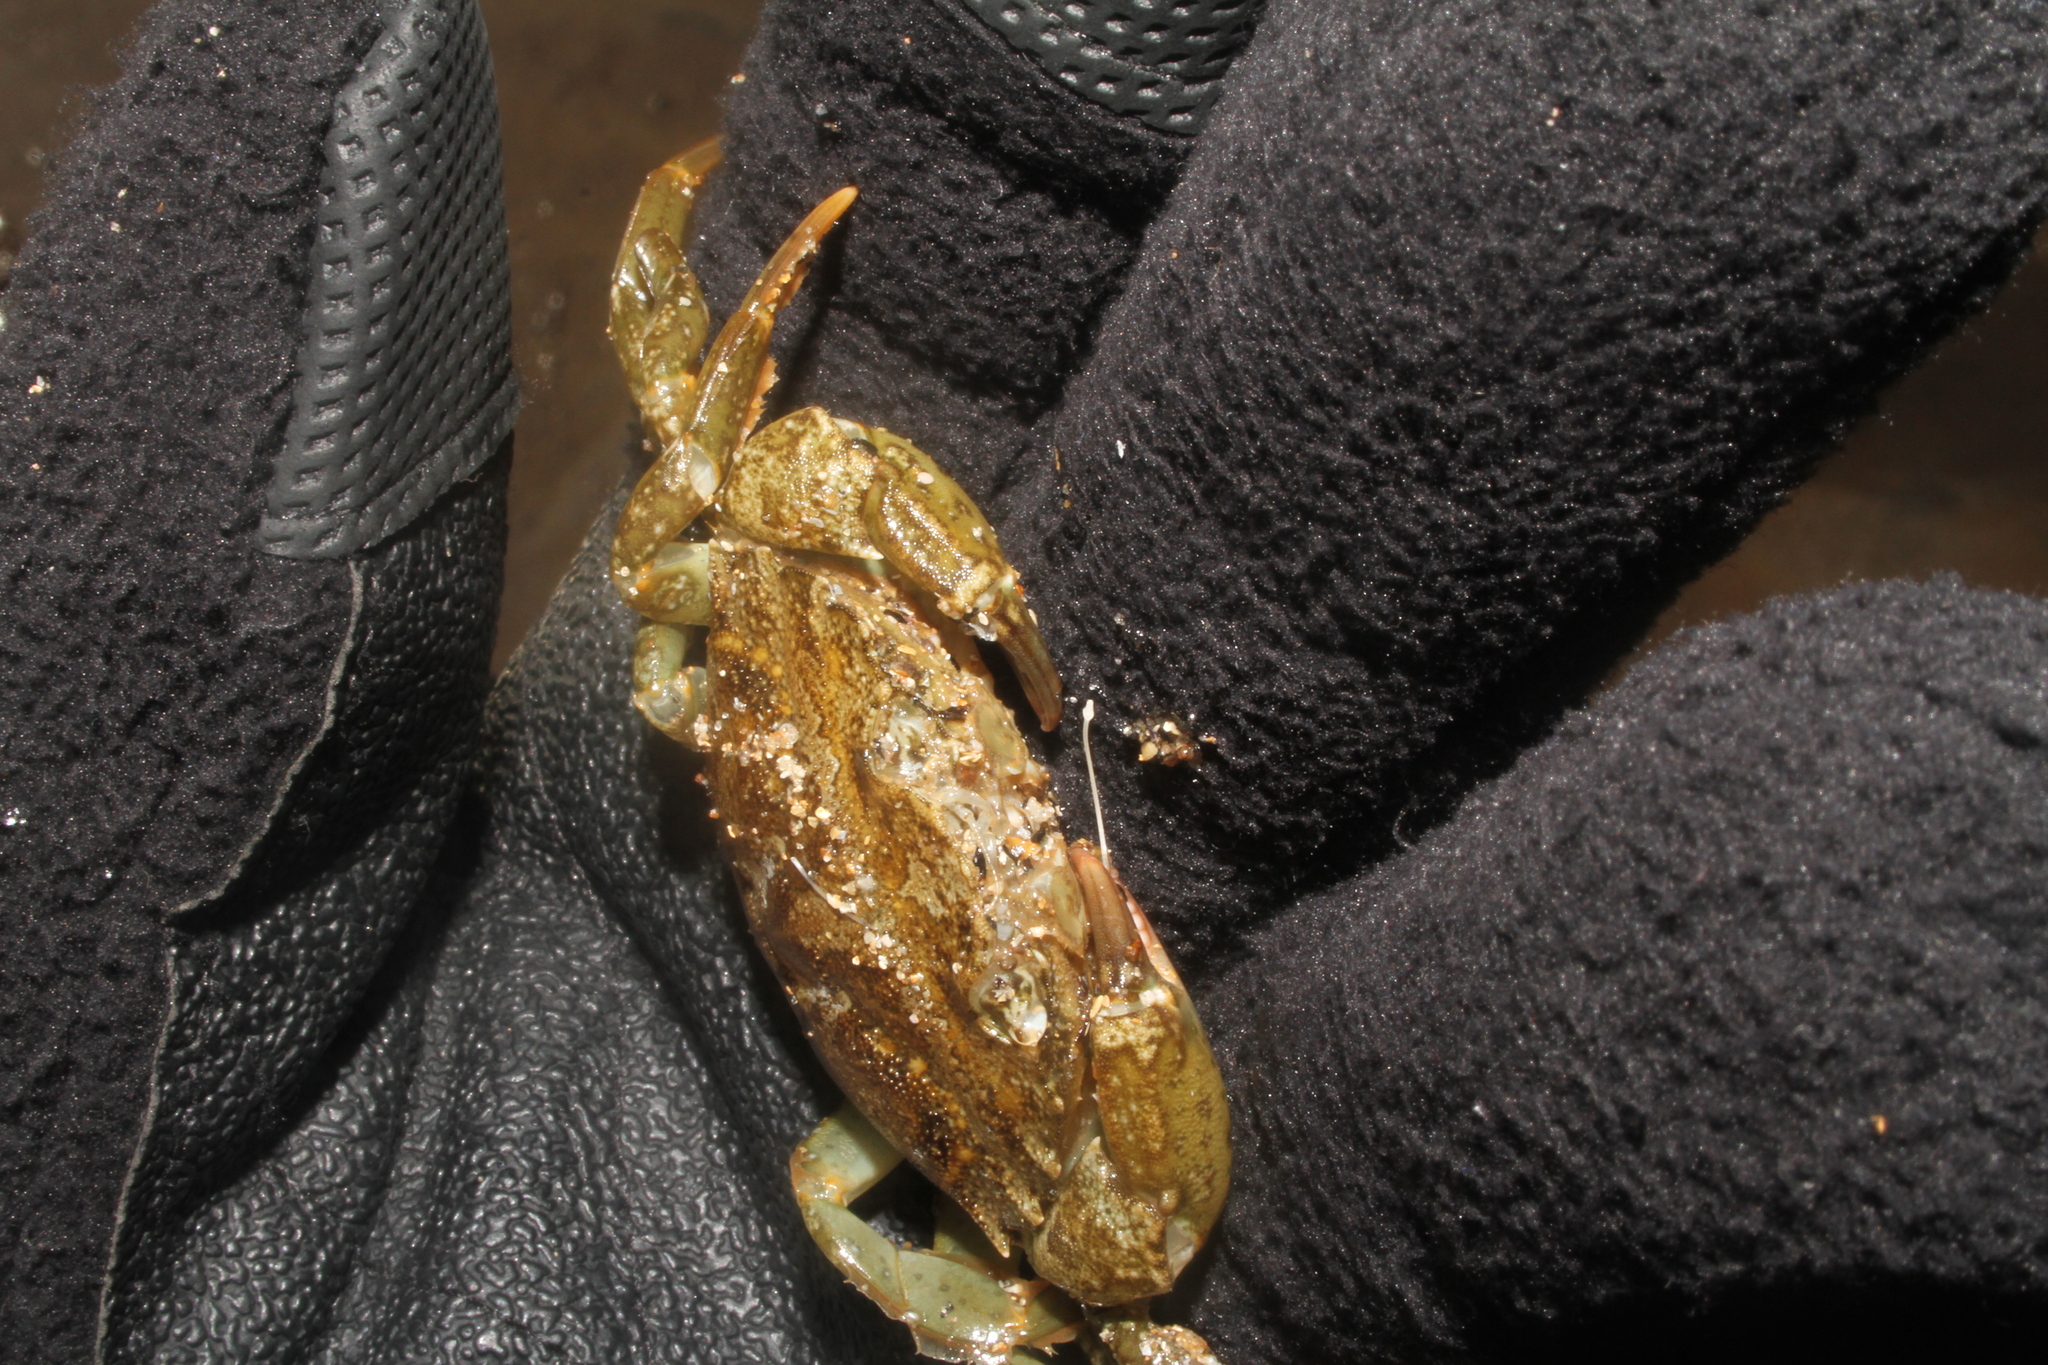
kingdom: Animalia
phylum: Arthropoda
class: Malacostraca
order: Decapoda
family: Carcinidae
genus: Carcinus
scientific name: Carcinus maenas
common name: European green crab
